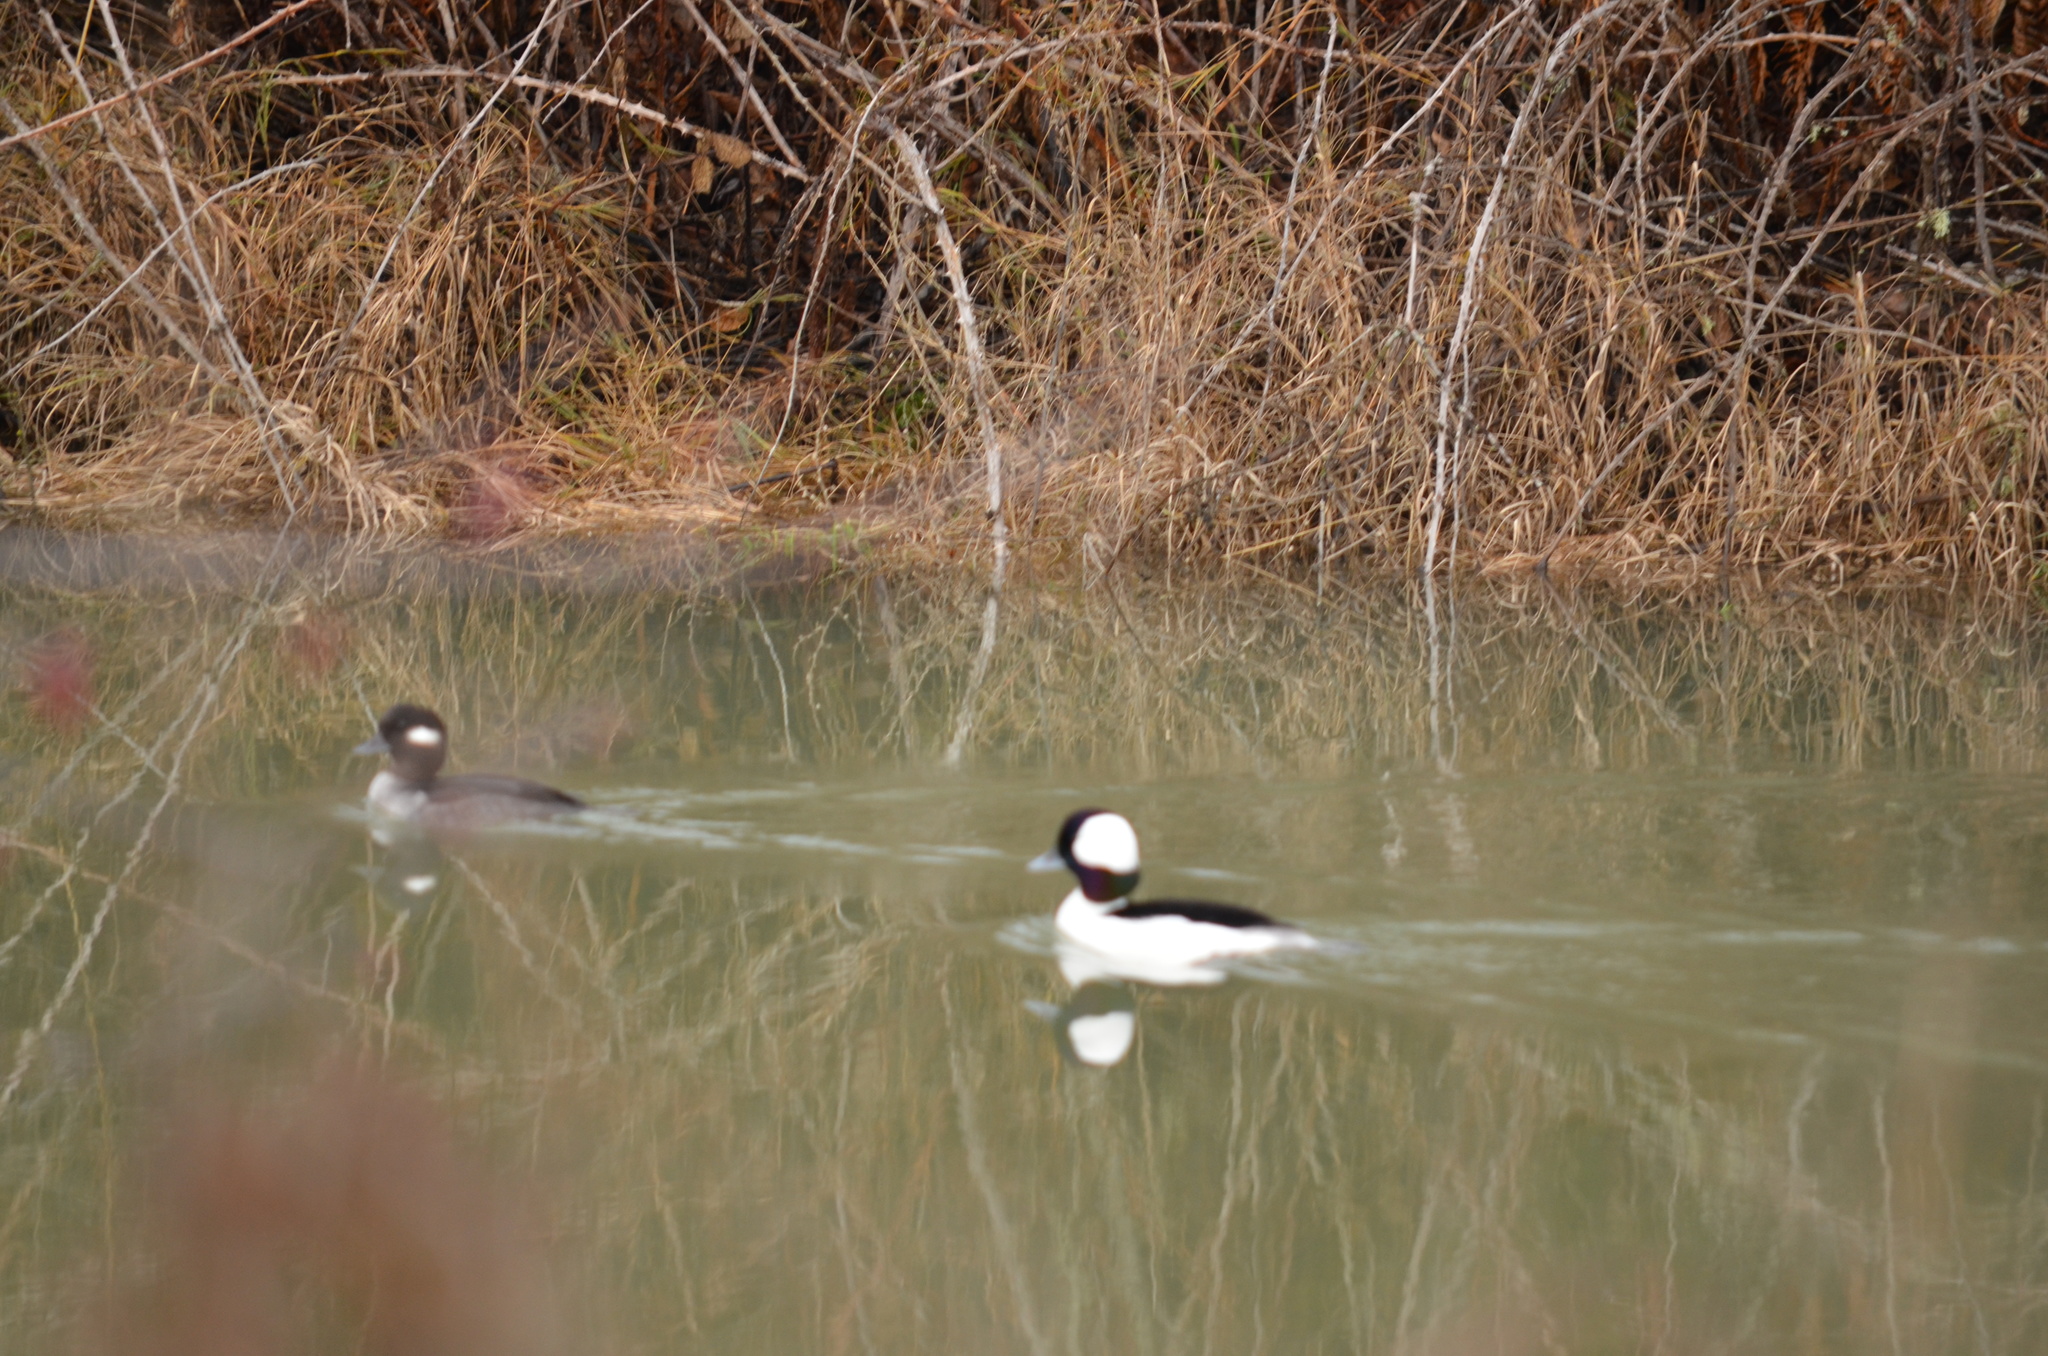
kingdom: Animalia
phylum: Chordata
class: Aves
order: Anseriformes
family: Anatidae
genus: Bucephala
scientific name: Bucephala albeola
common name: Bufflehead
